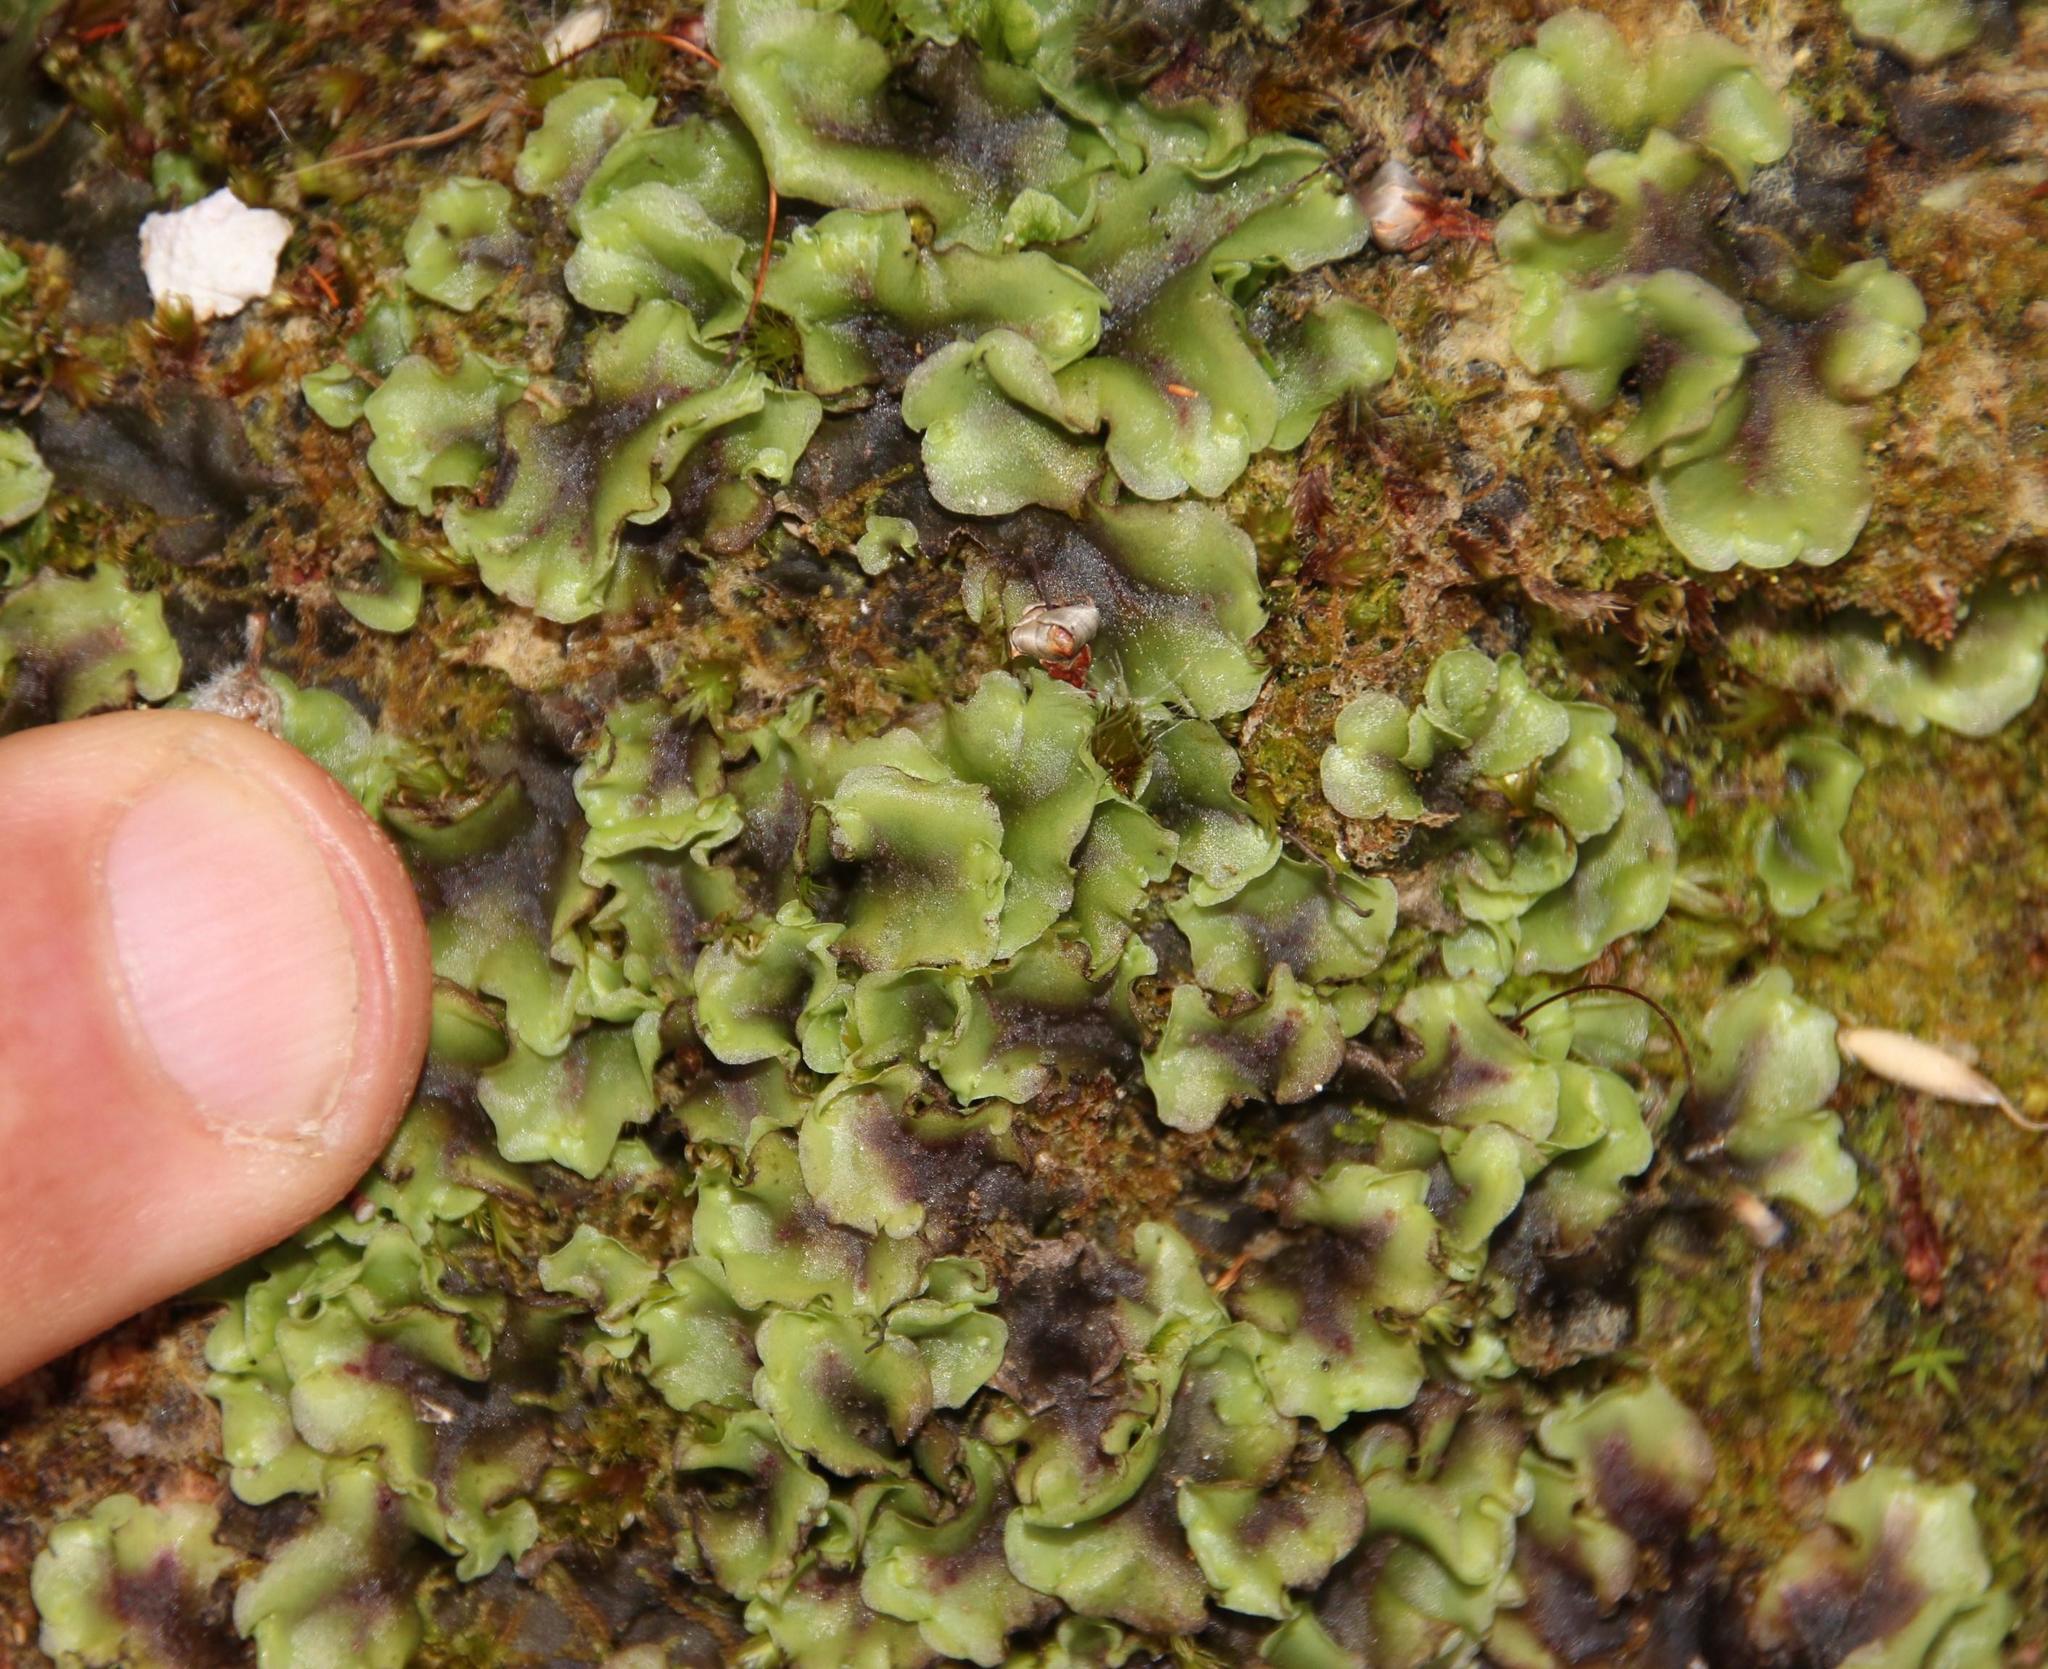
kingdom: Plantae
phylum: Marchantiophyta
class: Jungermanniopsida
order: Pelliales
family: Pelliaceae
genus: Pellia
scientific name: Pellia neesiana
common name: Nees  pellia
